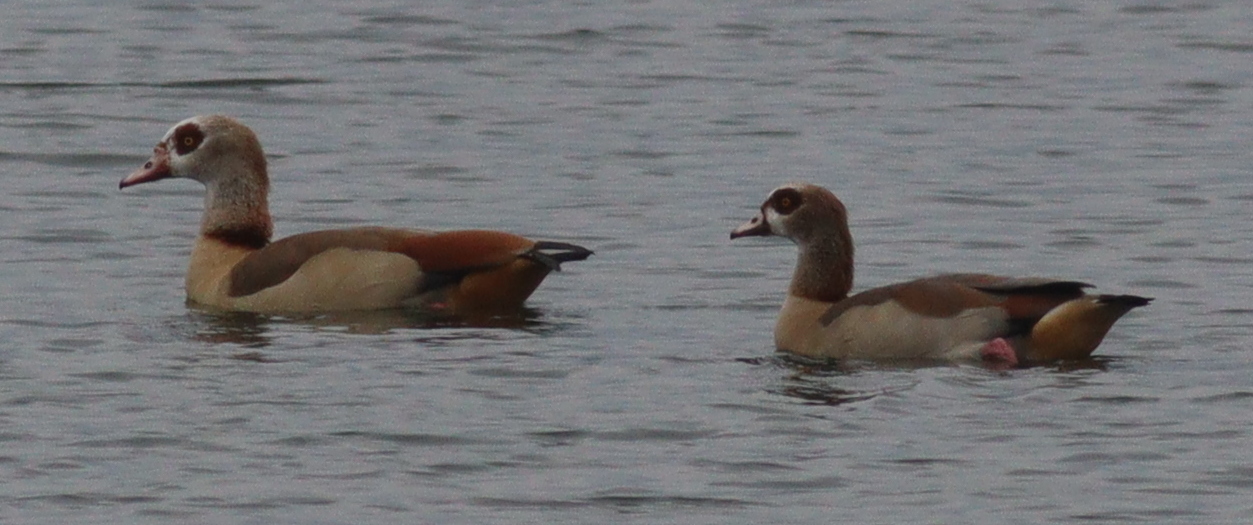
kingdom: Animalia
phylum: Chordata
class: Aves
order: Anseriformes
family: Anatidae
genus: Alopochen
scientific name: Alopochen aegyptiaca
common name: Egyptian goose
